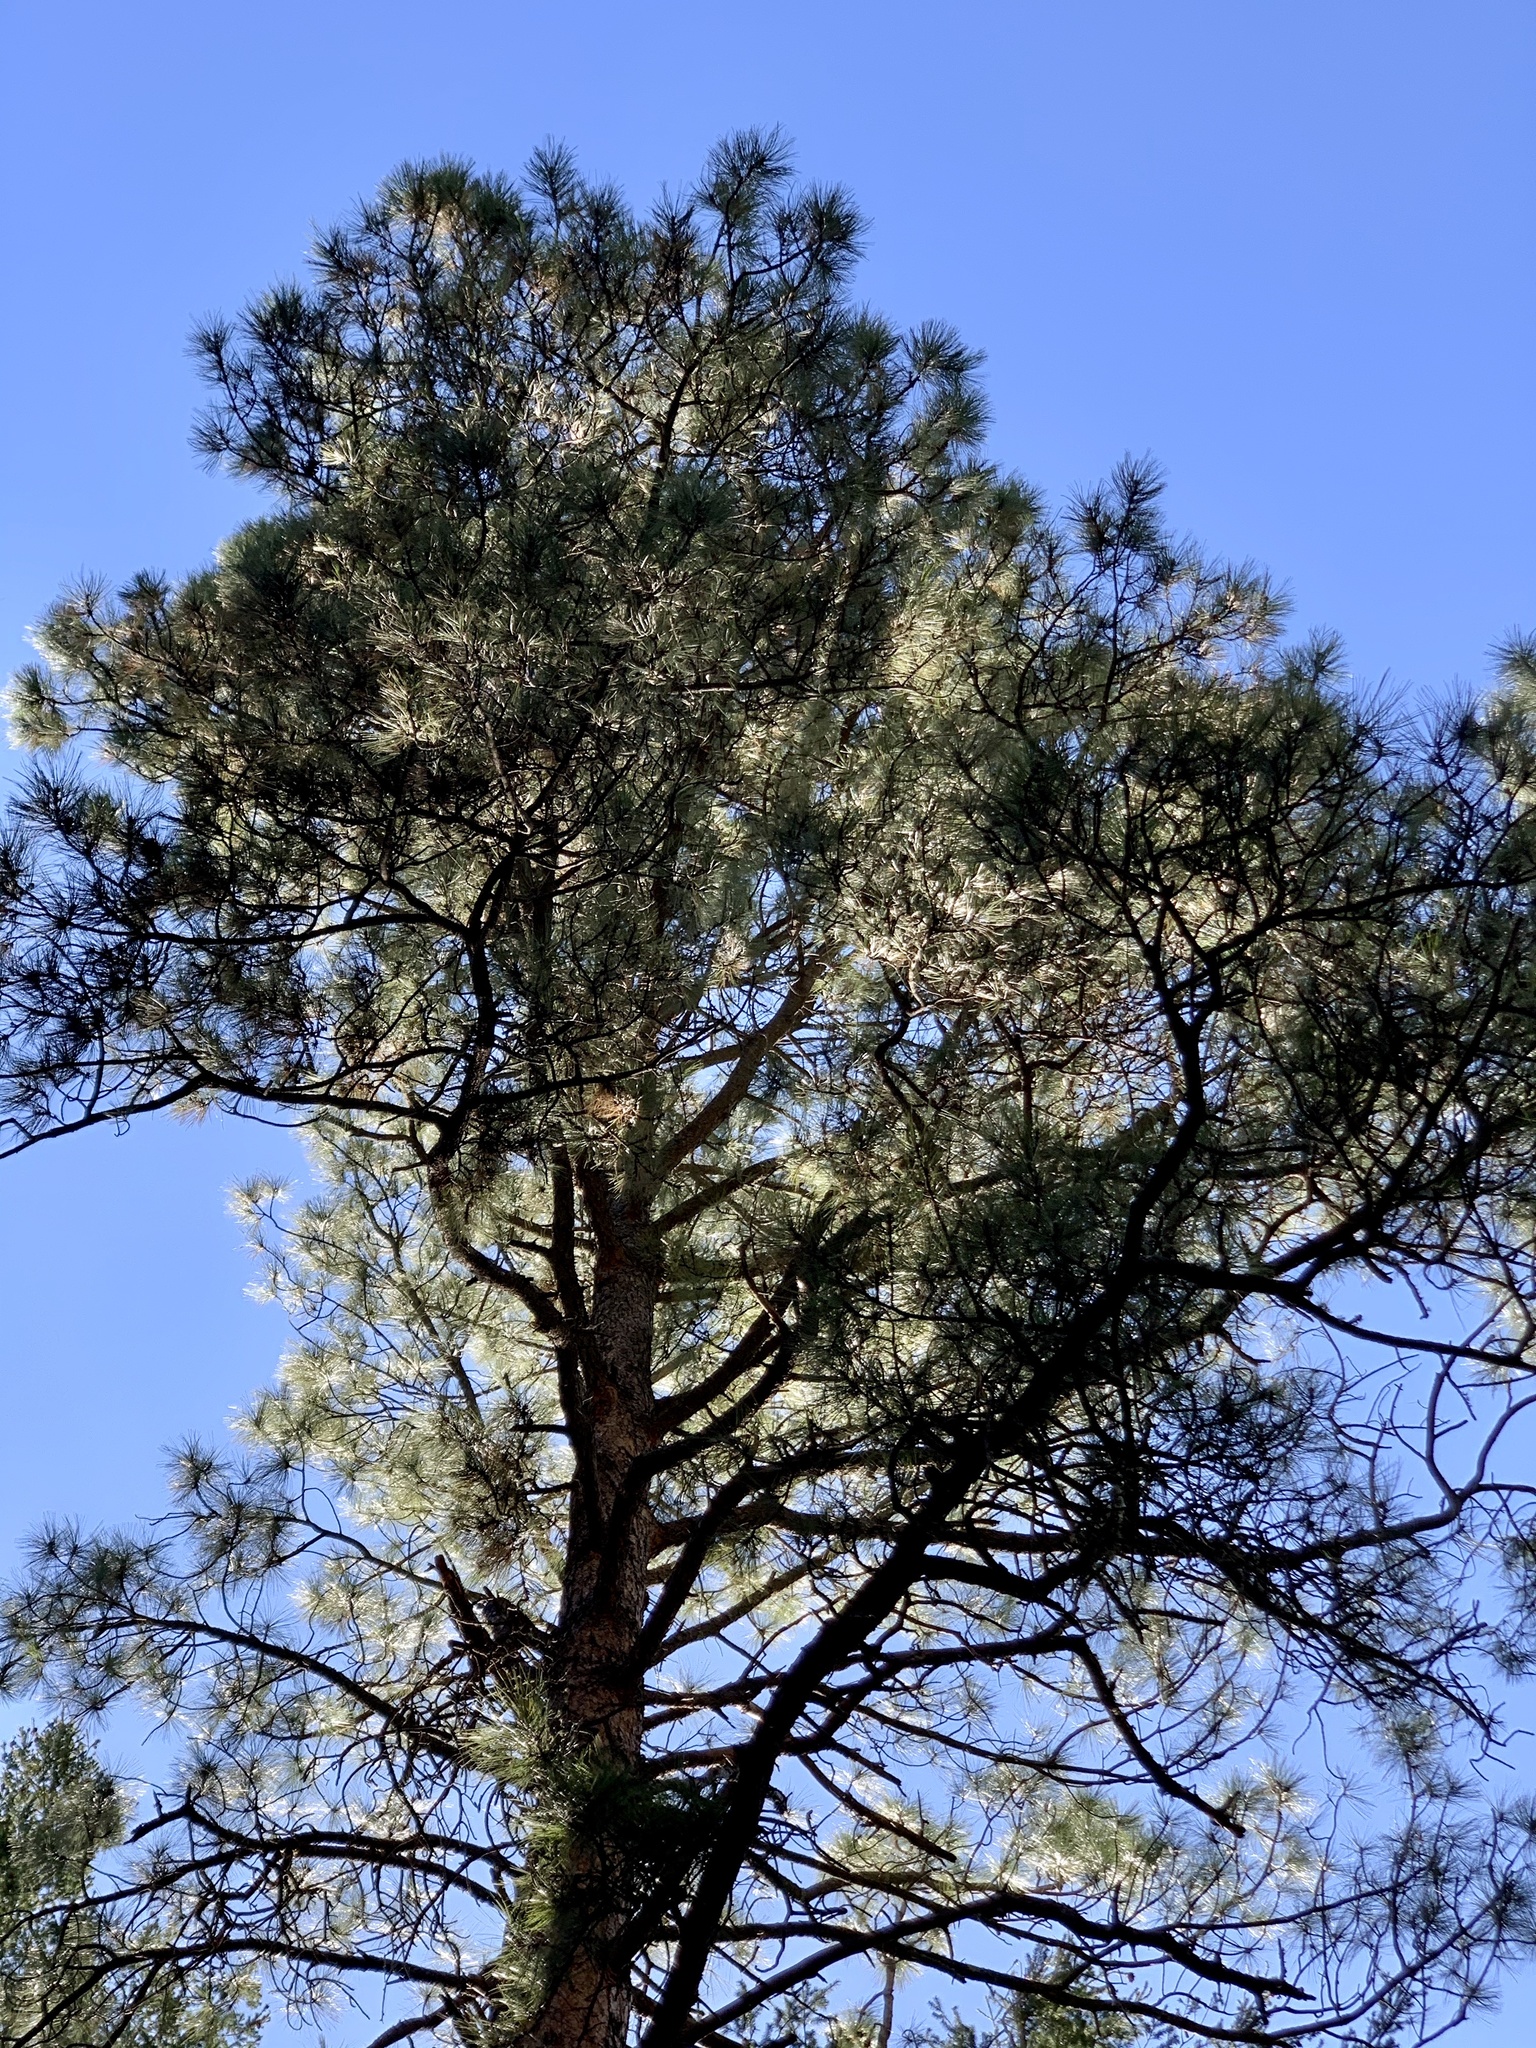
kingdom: Plantae
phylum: Tracheophyta
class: Pinopsida
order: Pinales
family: Pinaceae
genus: Pinus
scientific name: Pinus ponderosa
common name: Western yellow-pine
